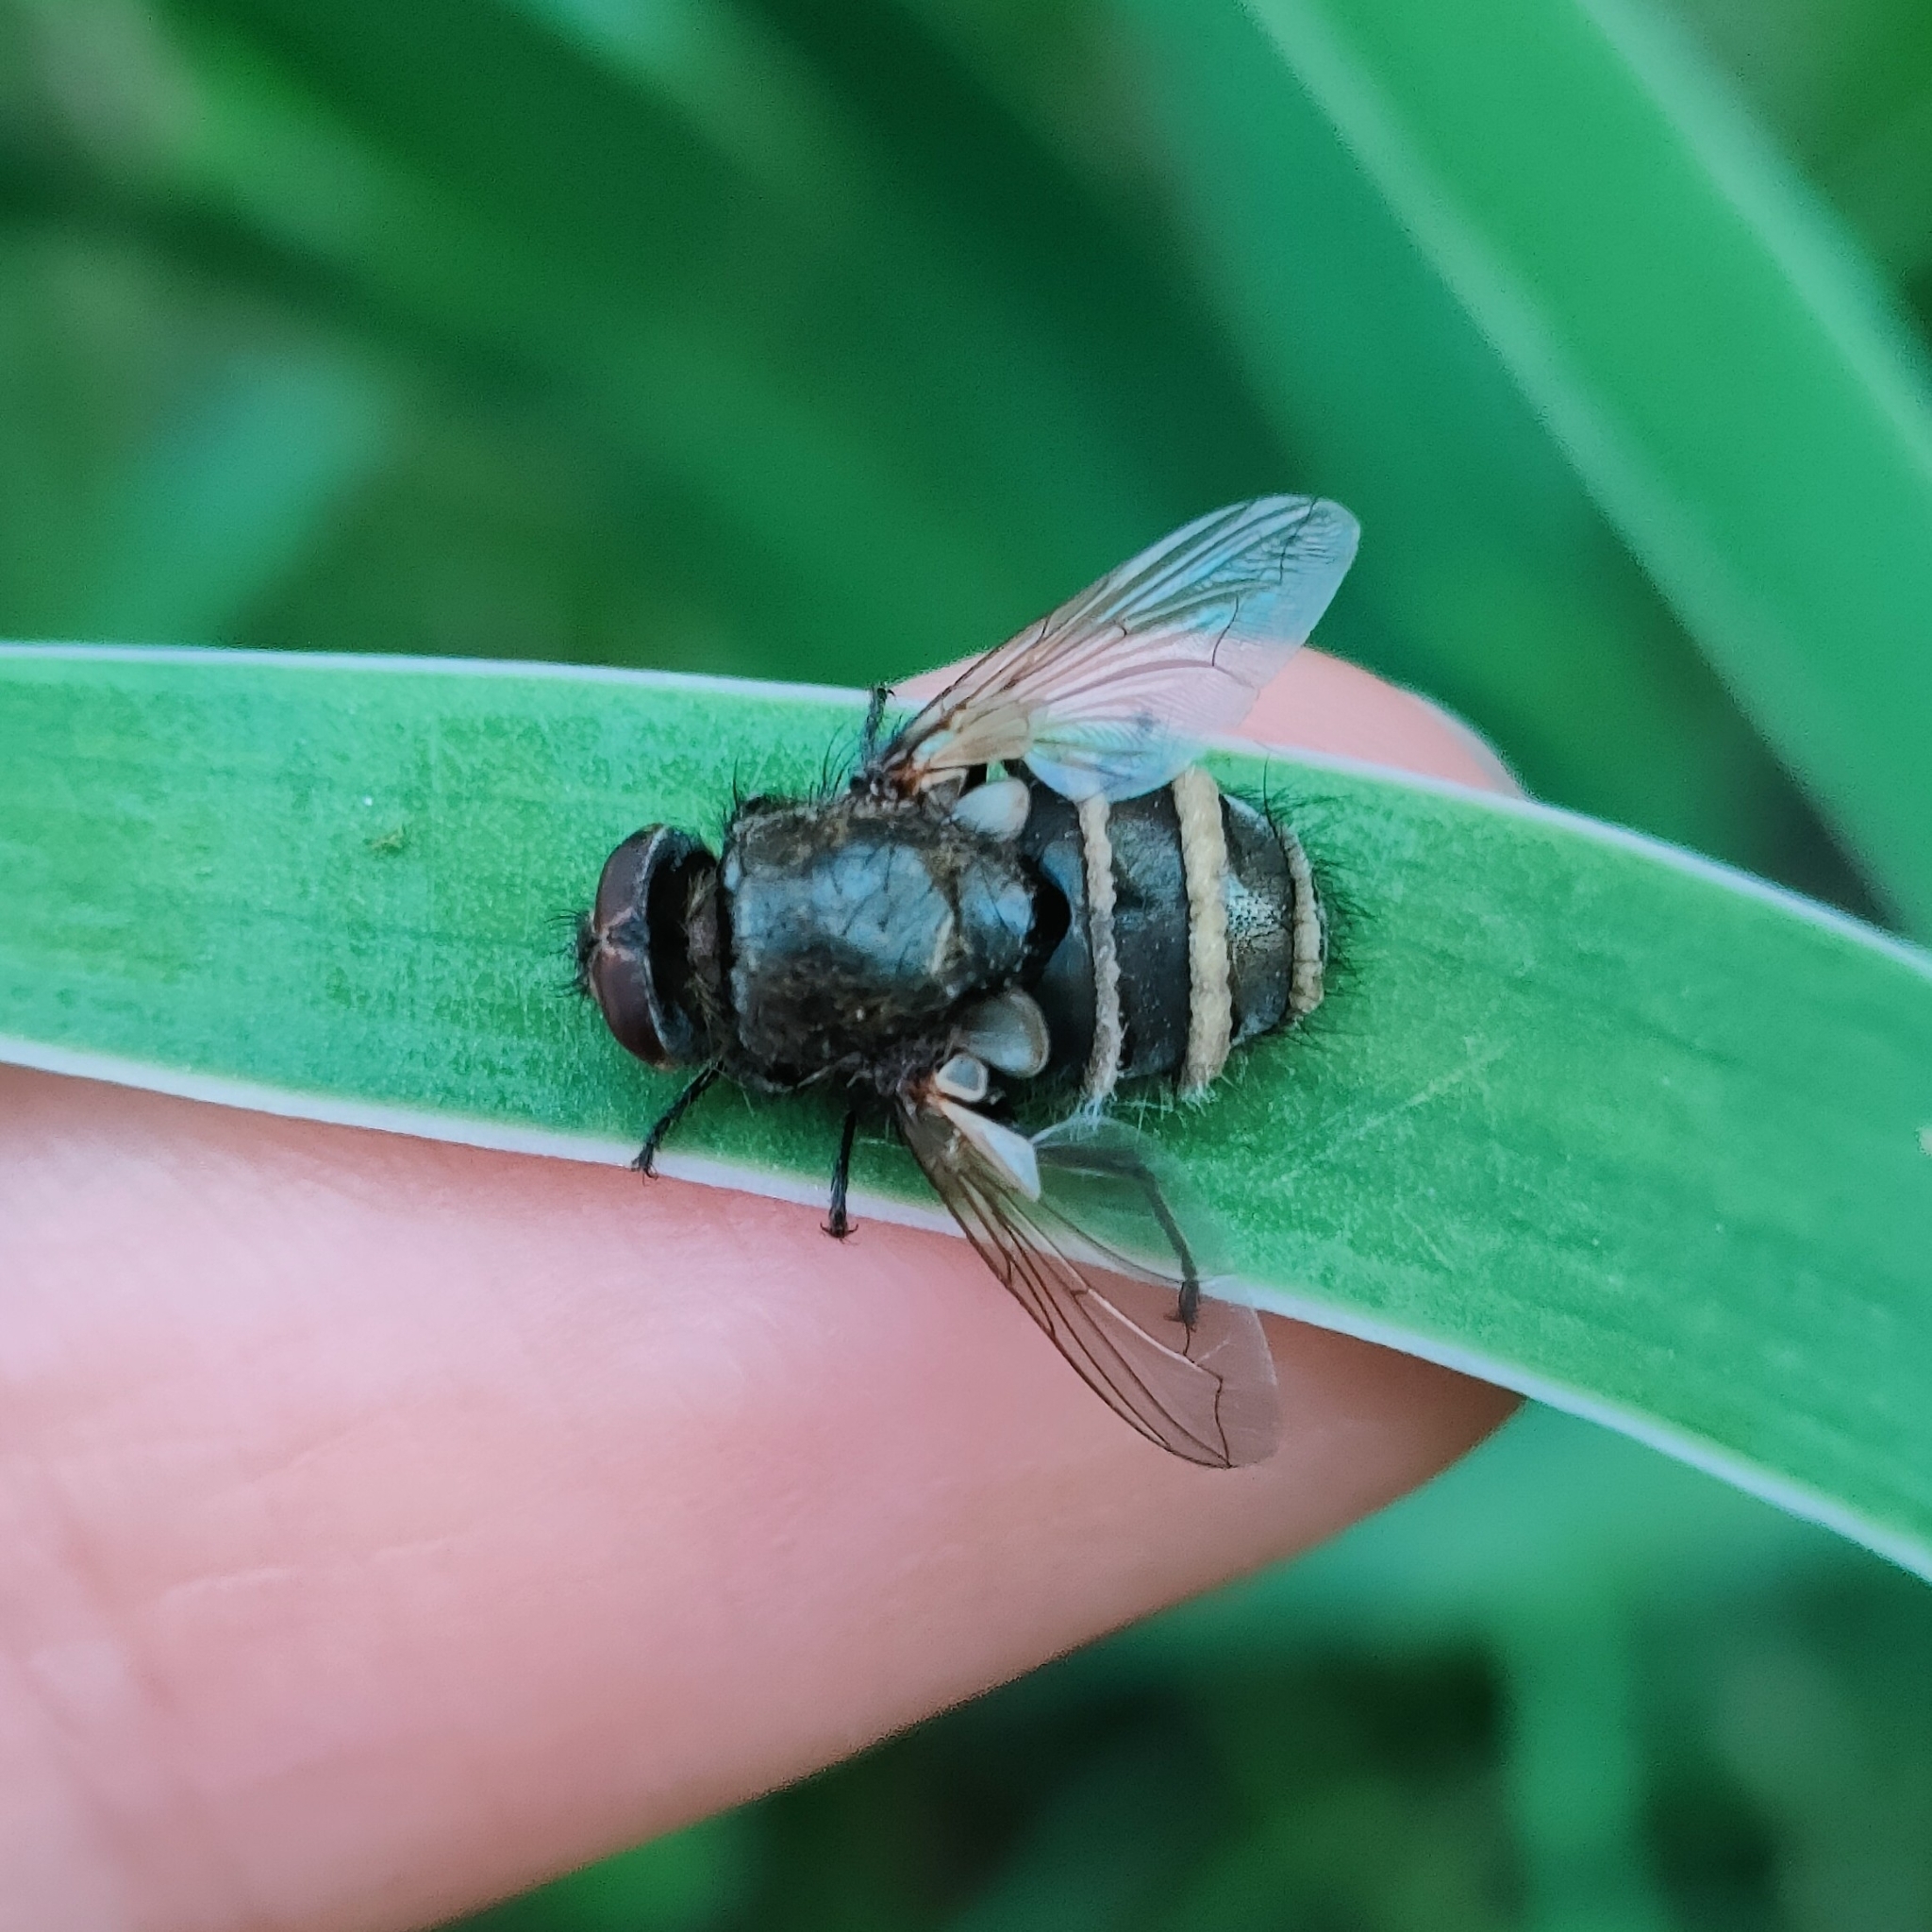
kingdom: Fungi
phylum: Entomophthoromycota
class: Entomophthoromycetes
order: Entomophthorales
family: Entomophthoraceae
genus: Entomophthora
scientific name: Entomophthora
